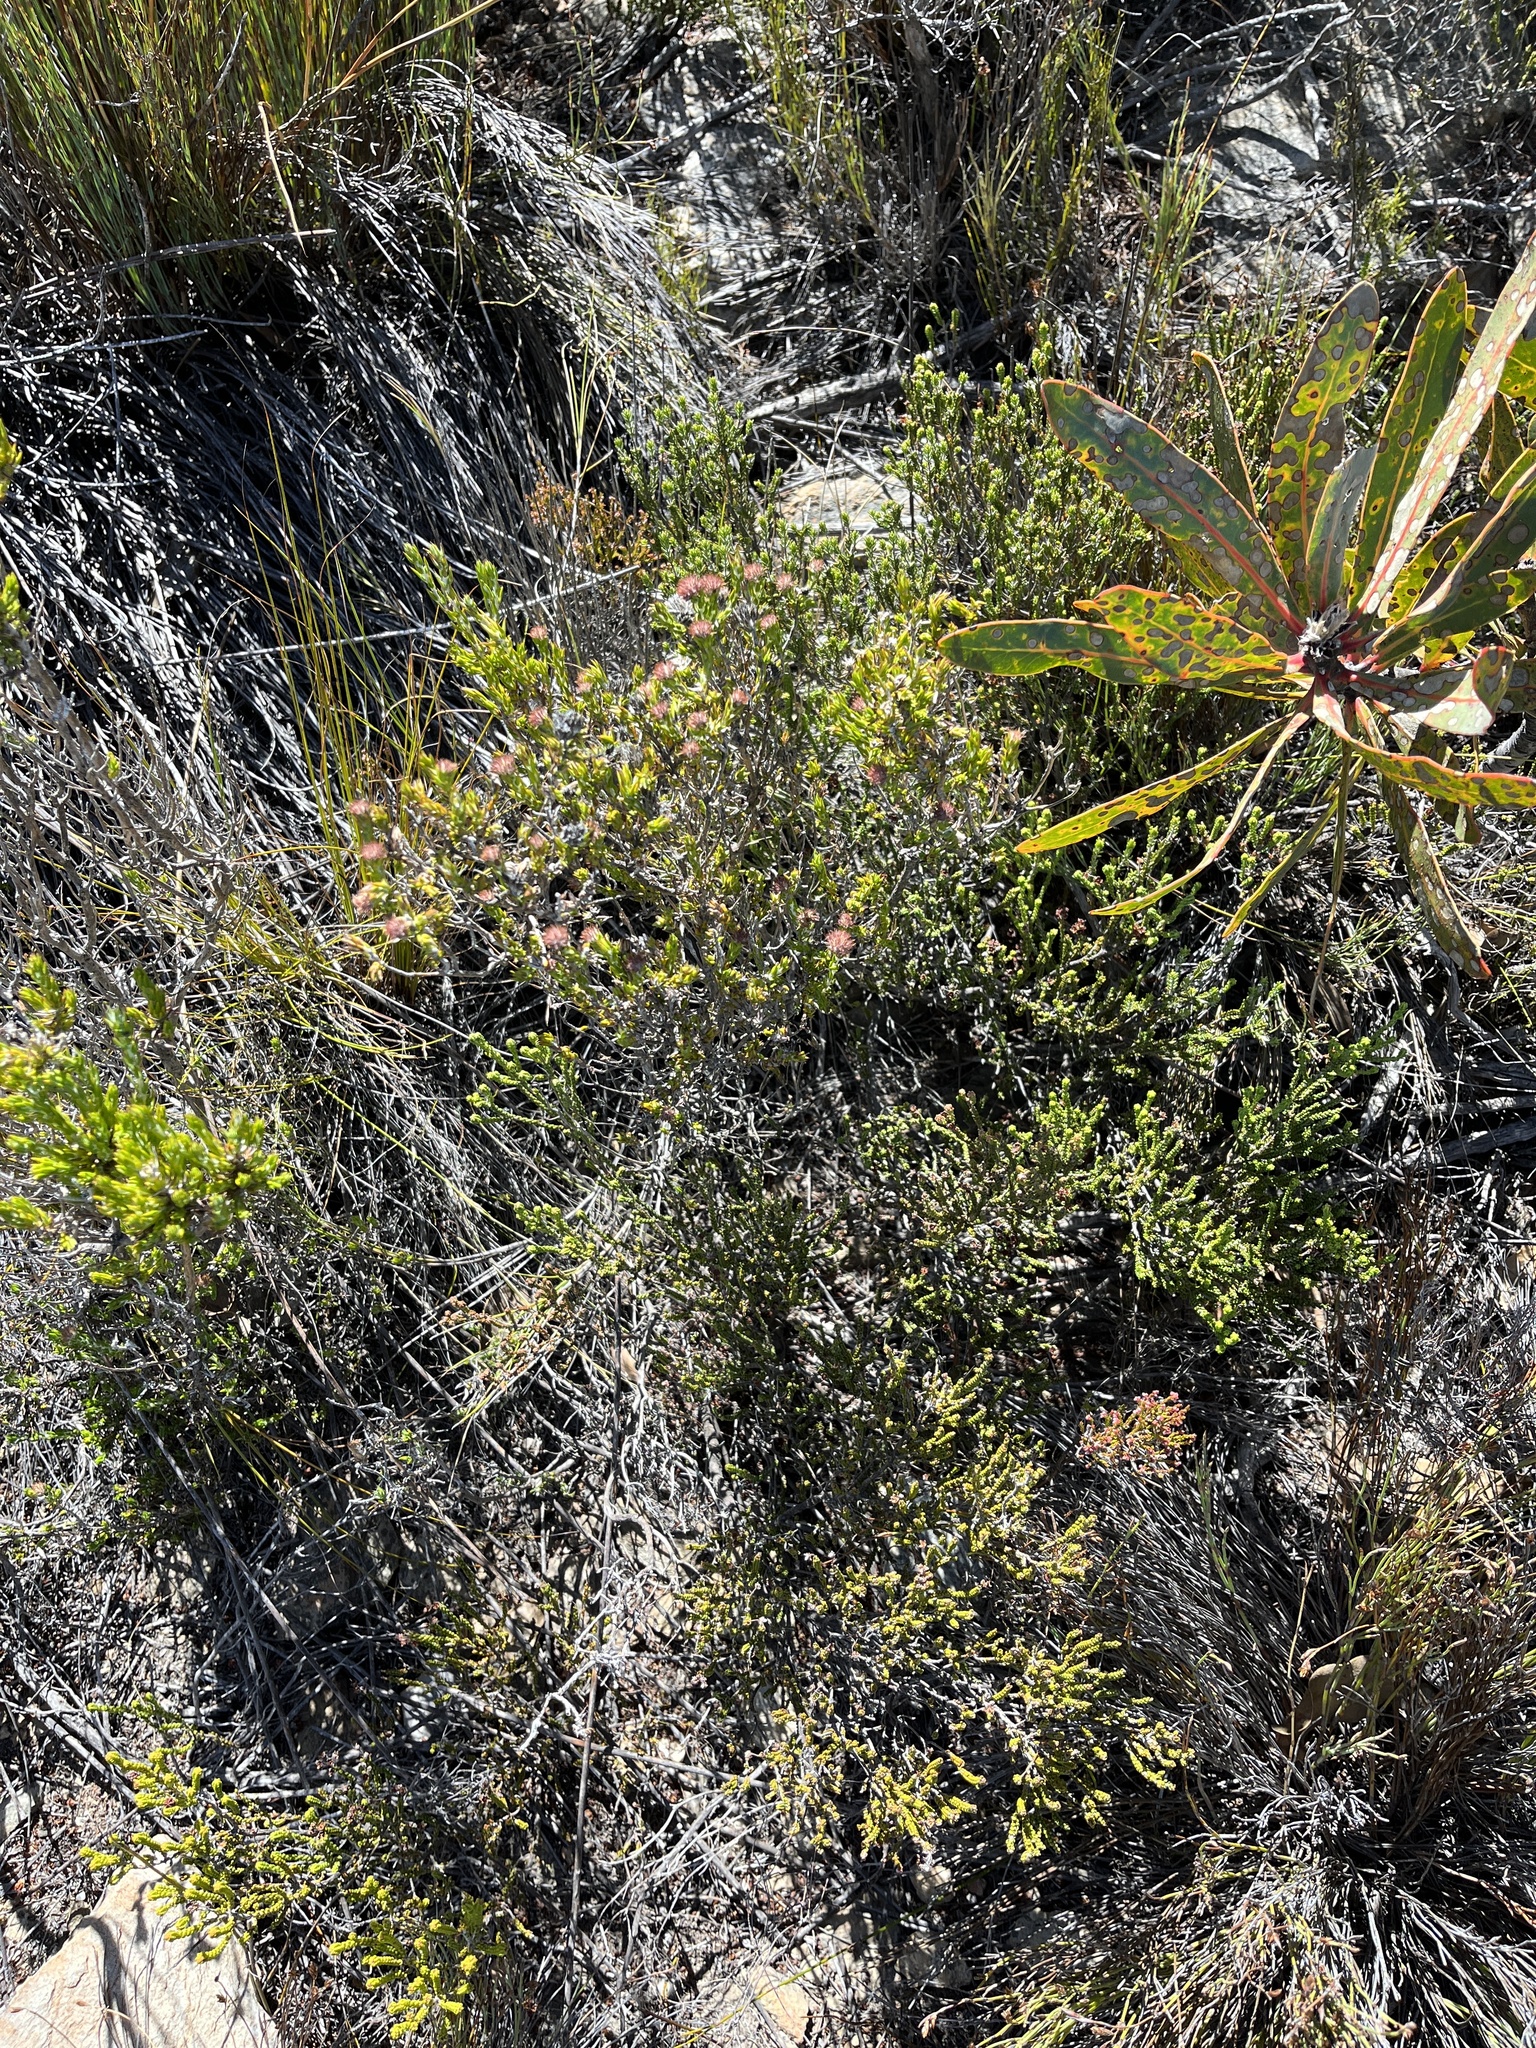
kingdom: Plantae
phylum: Tracheophyta
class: Magnoliopsida
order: Asterales
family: Asteraceae
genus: Metalasia
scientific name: Metalasia pungens
